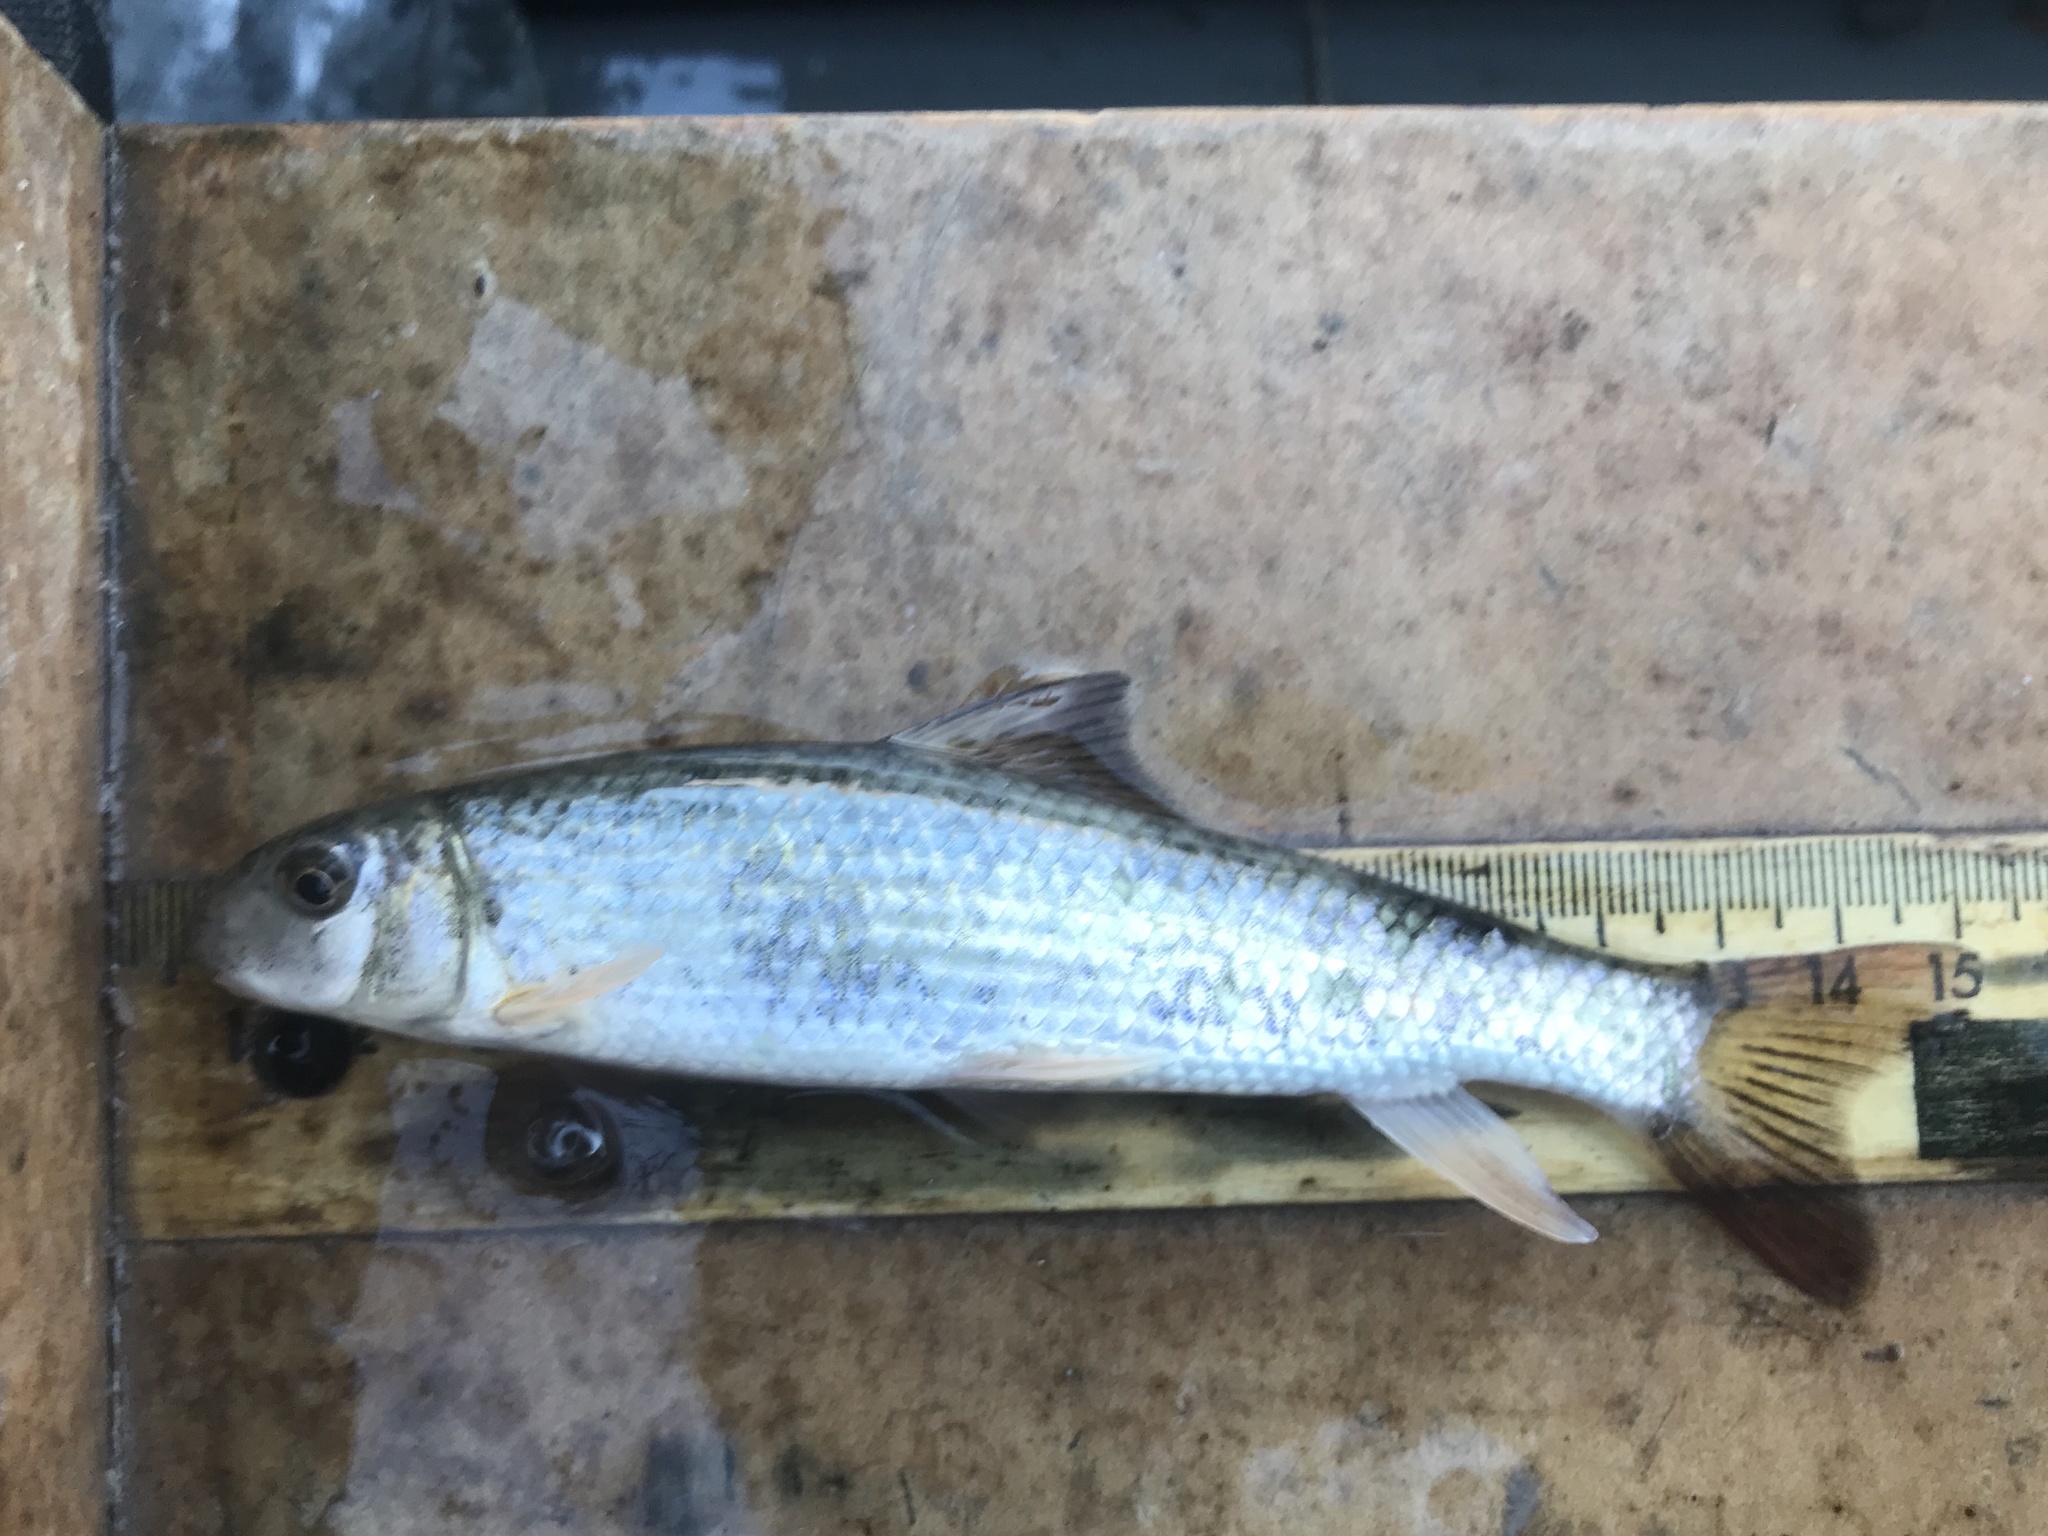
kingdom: Animalia
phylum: Chordata
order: Cypriniformes
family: Catostomidae
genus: Moxostoma
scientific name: Moxostoma congestum
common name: Gray redhorse
